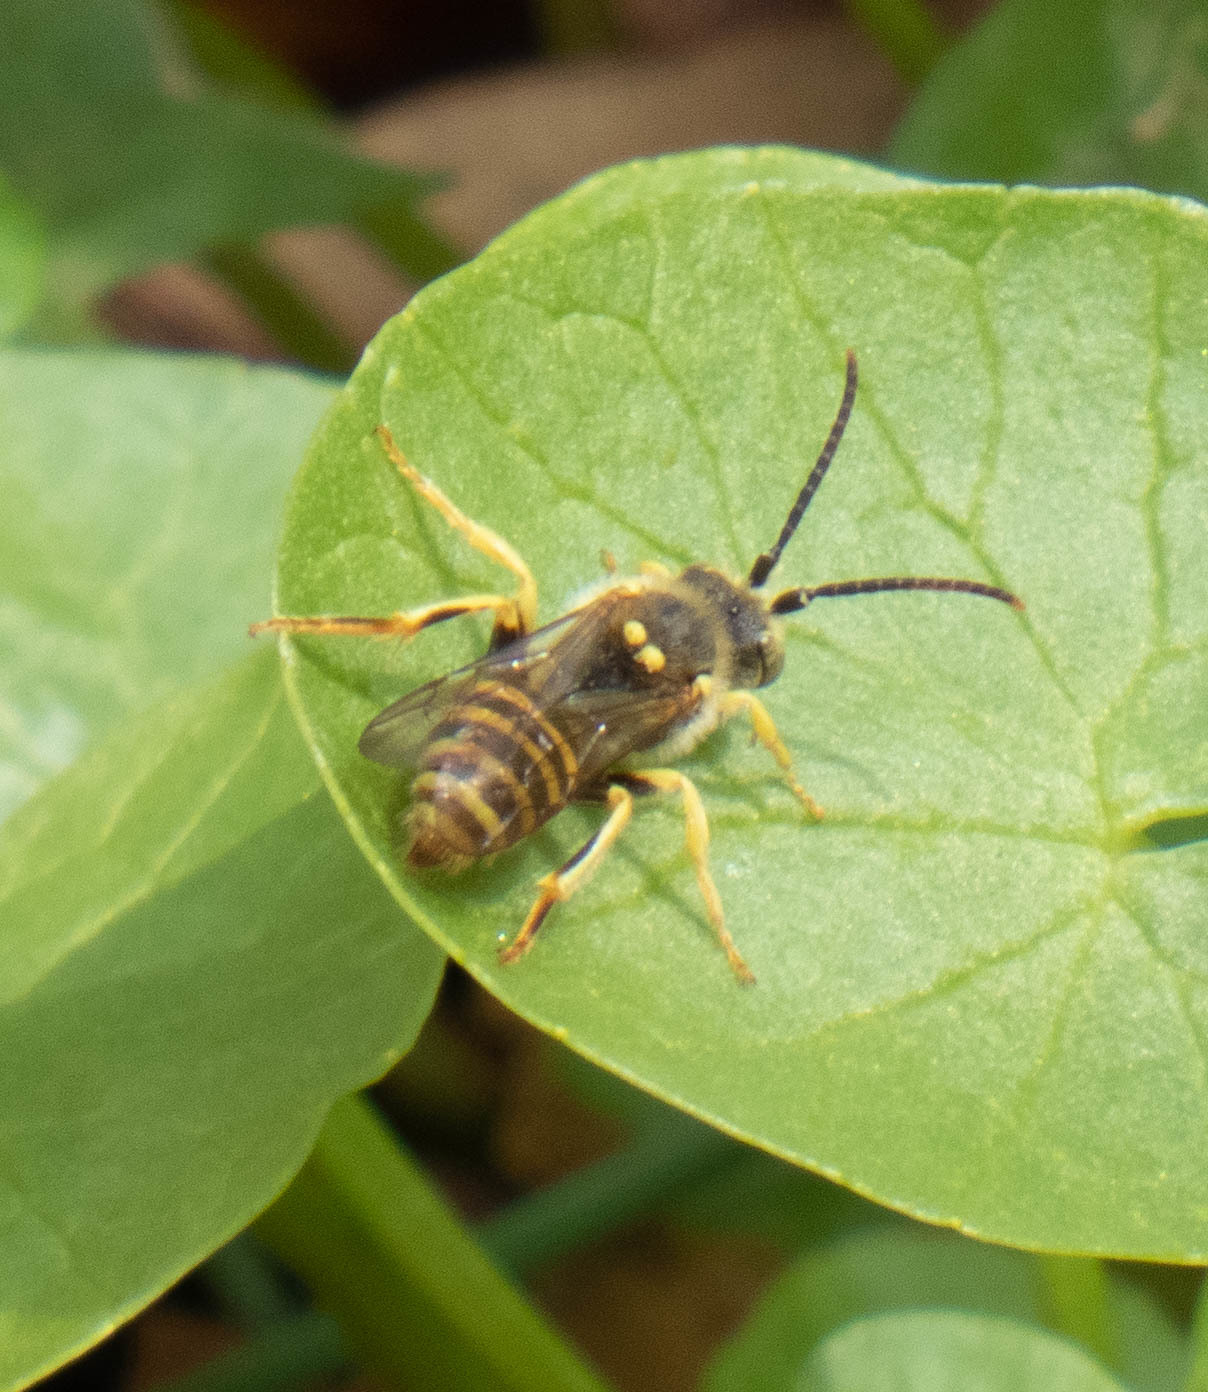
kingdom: Animalia
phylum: Arthropoda
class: Insecta
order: Hymenoptera
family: Apidae
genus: Nomada
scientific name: Nomada
